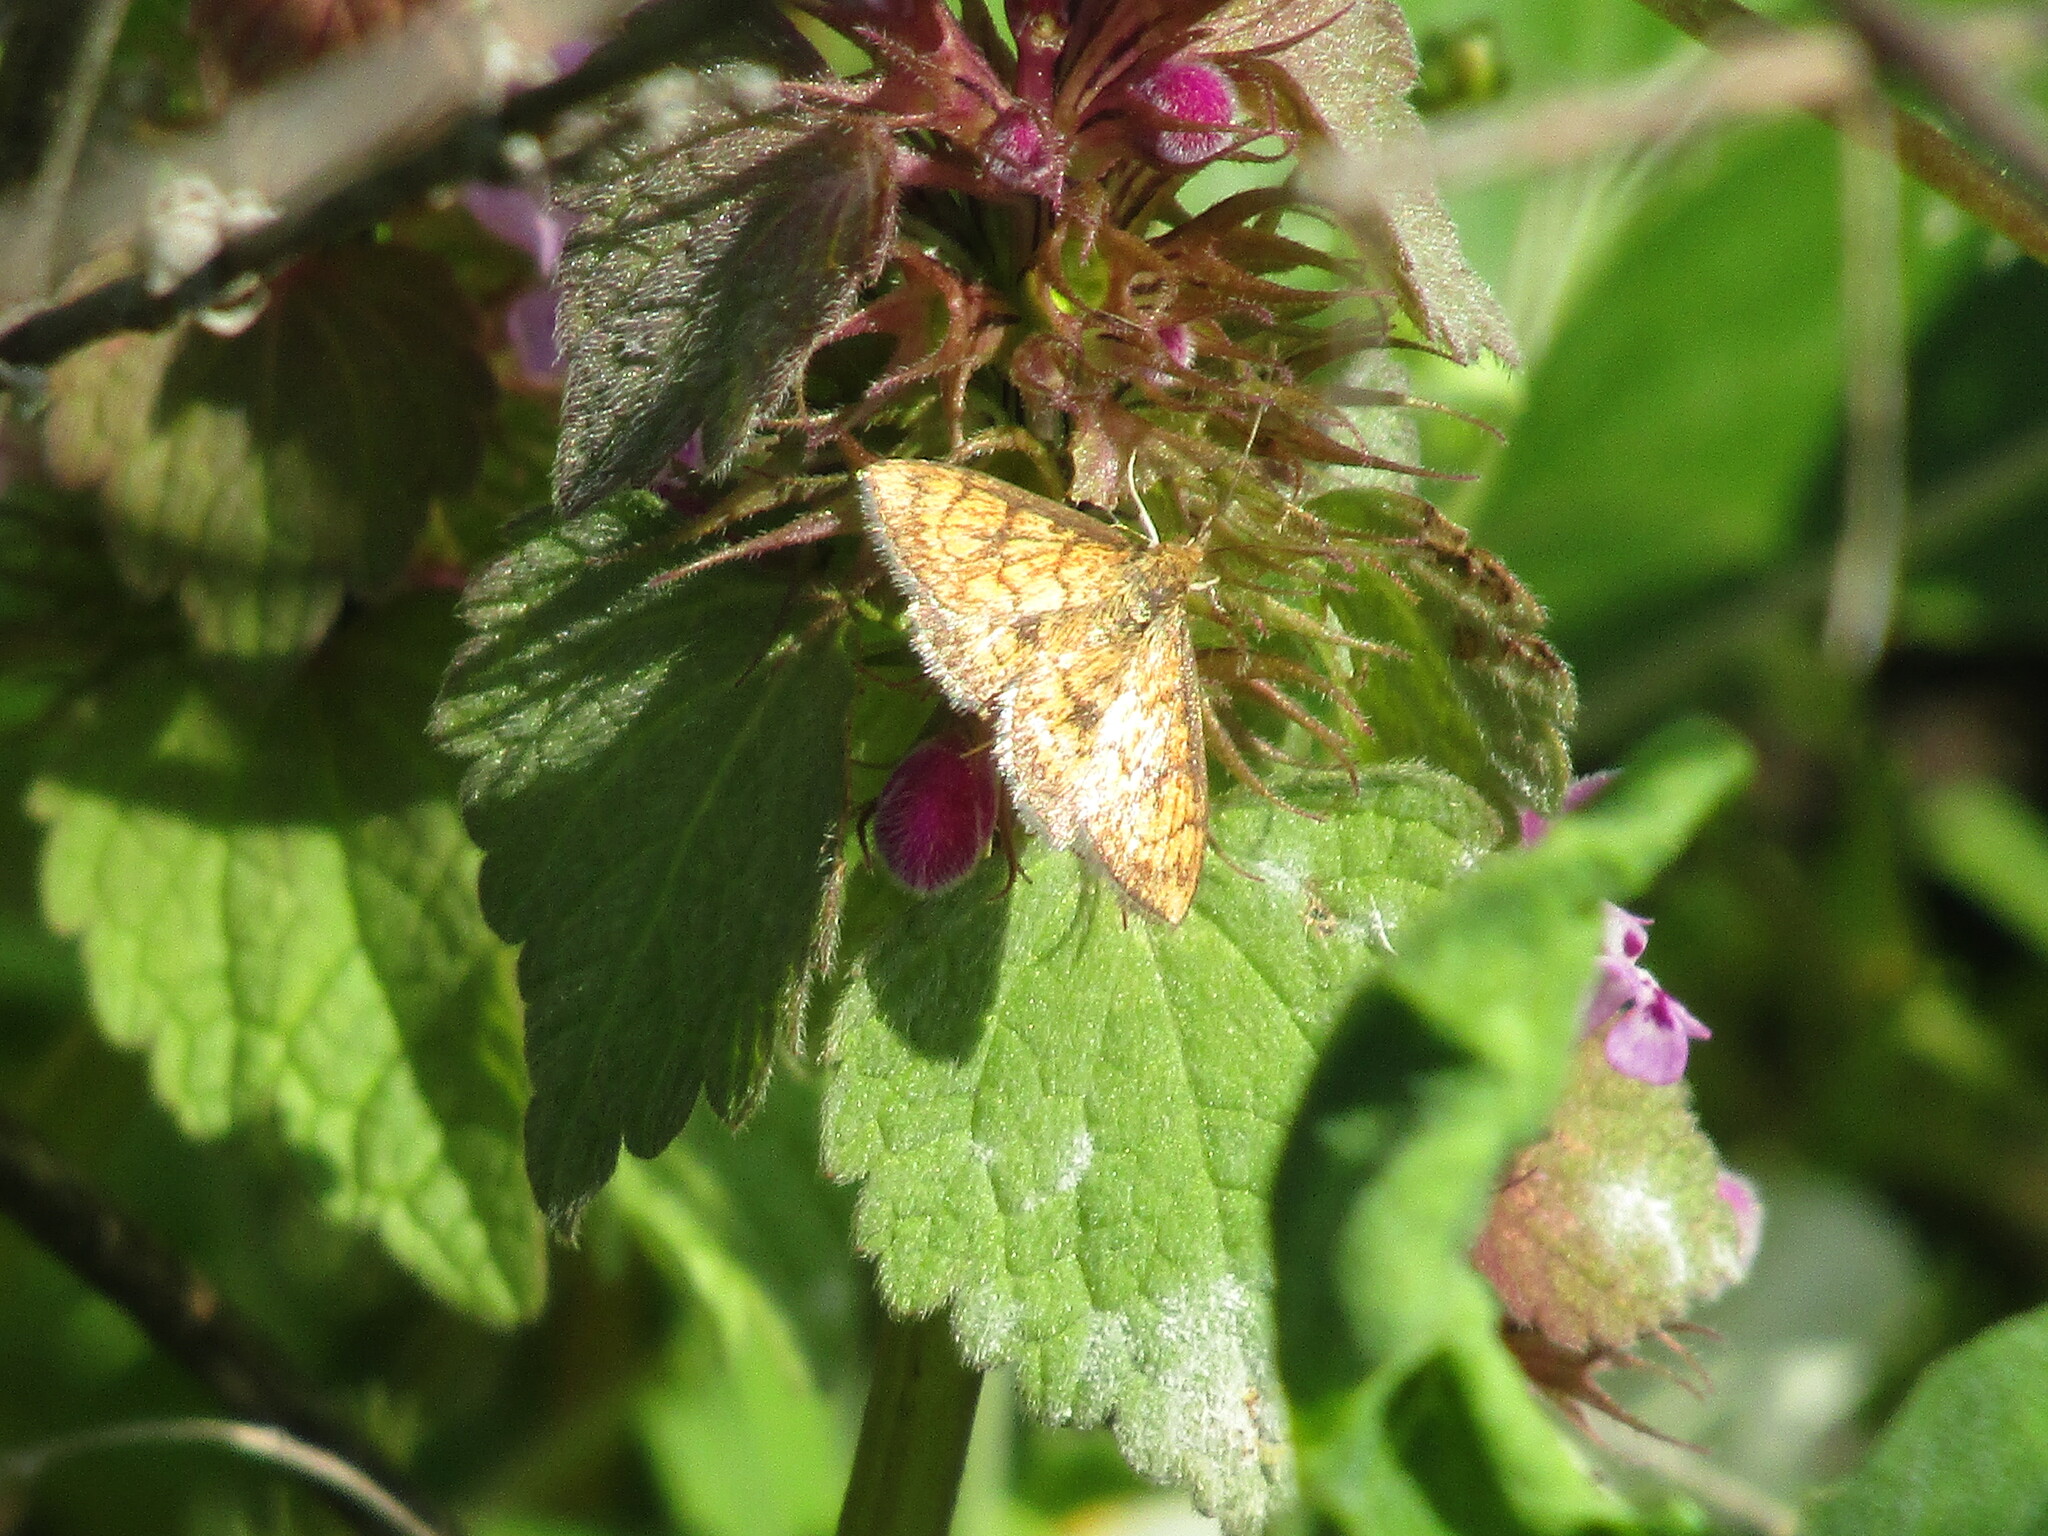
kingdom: Animalia
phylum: Arthropoda
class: Insecta
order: Lepidoptera
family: Crambidae
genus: Ecpyrrhorrhoe
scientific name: Ecpyrrhorrhoe rubiginalis
